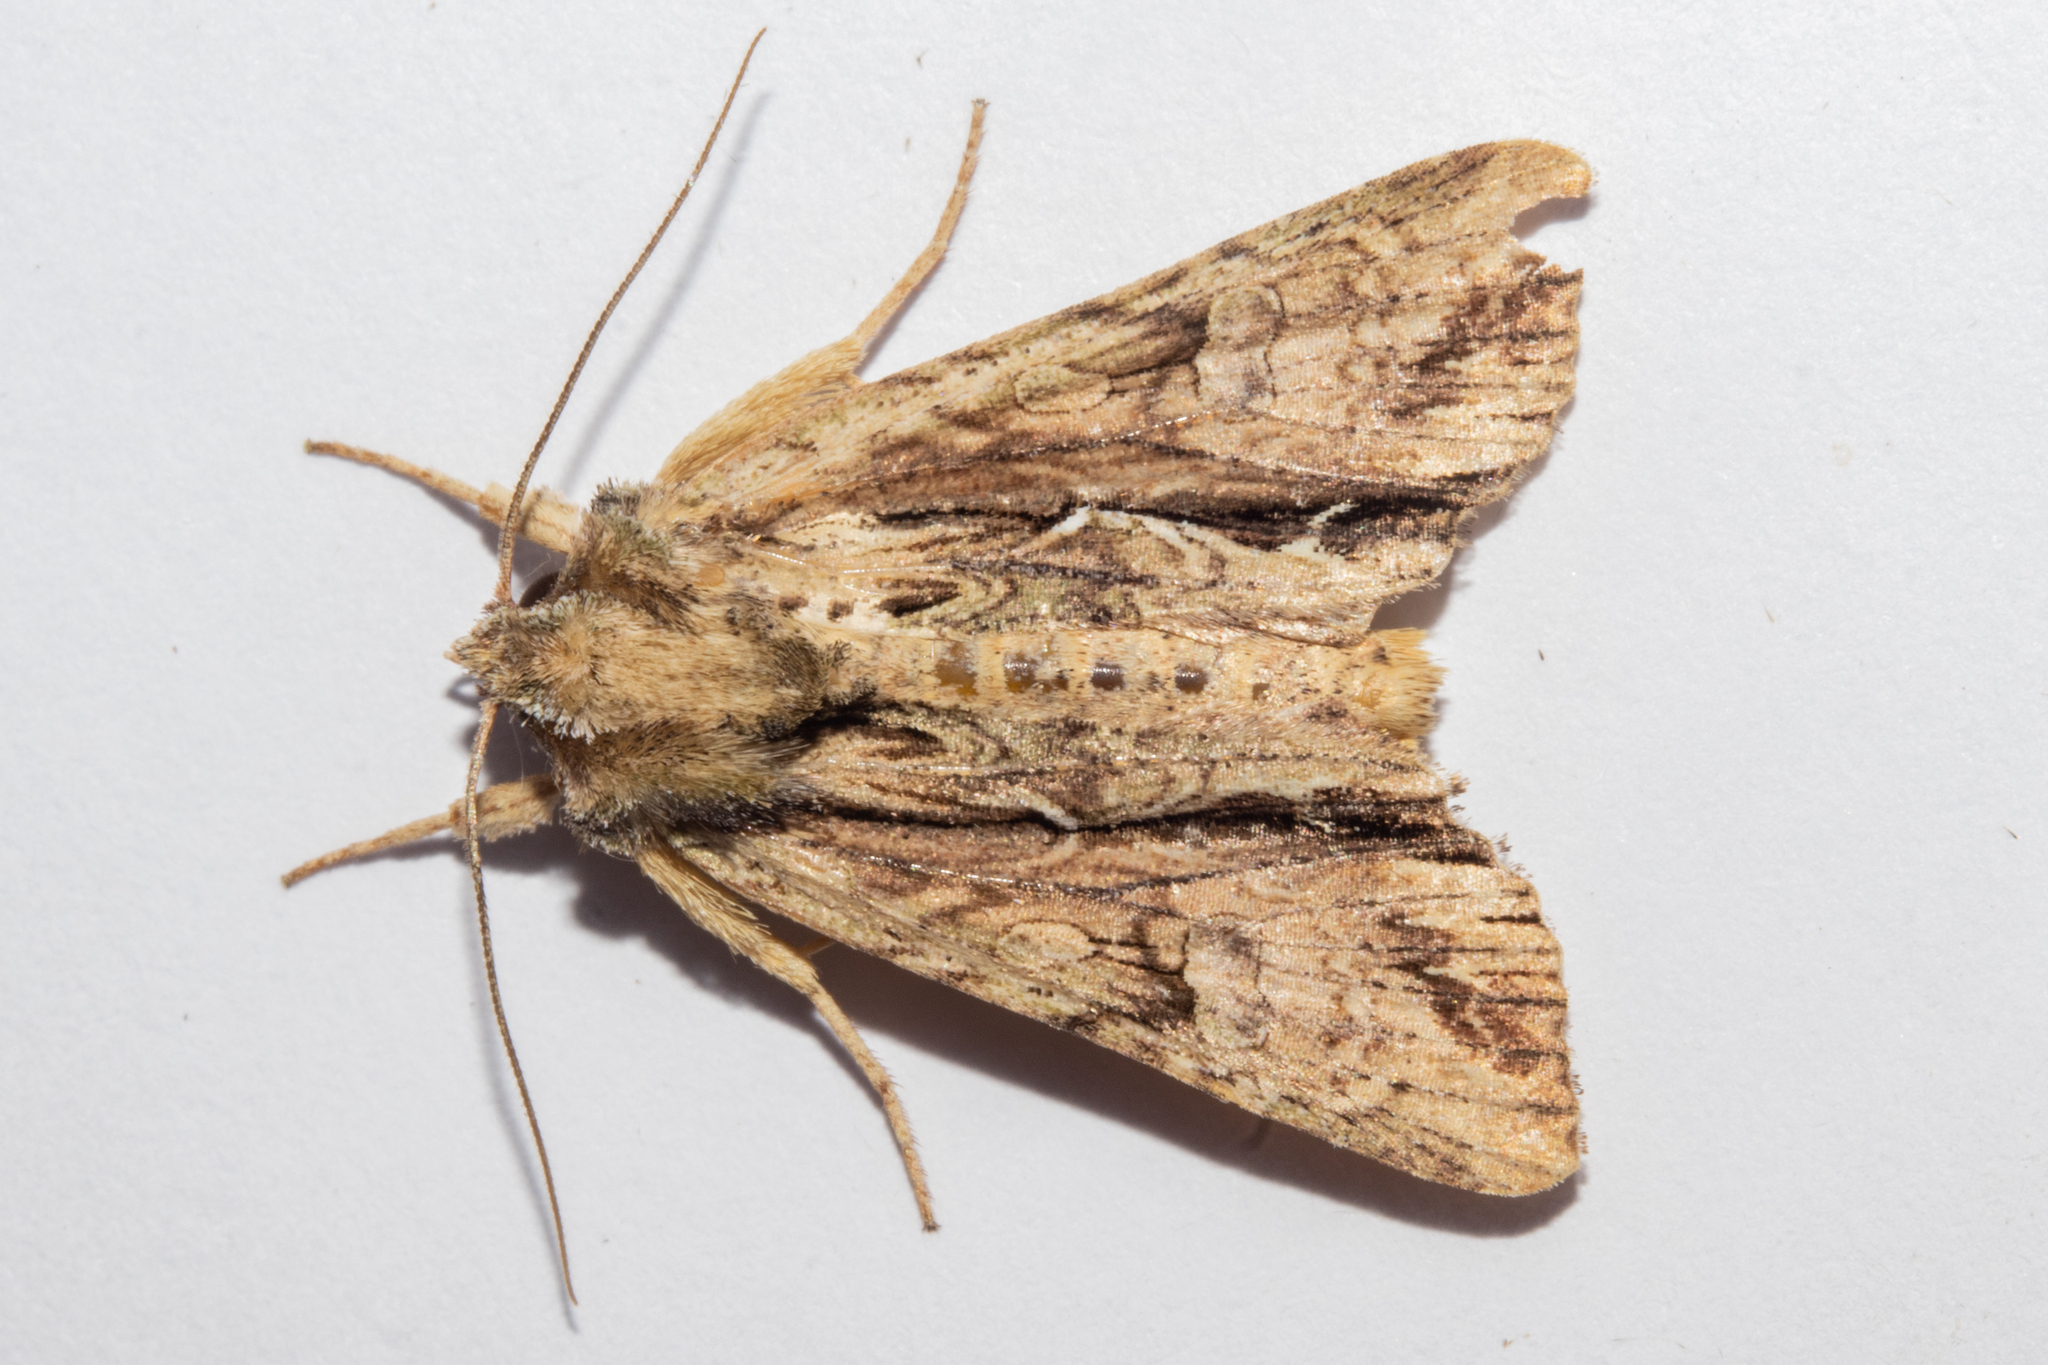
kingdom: Animalia
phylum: Arthropoda
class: Insecta
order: Lepidoptera
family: Noctuidae
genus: Meterana
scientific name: Meterana decorata
